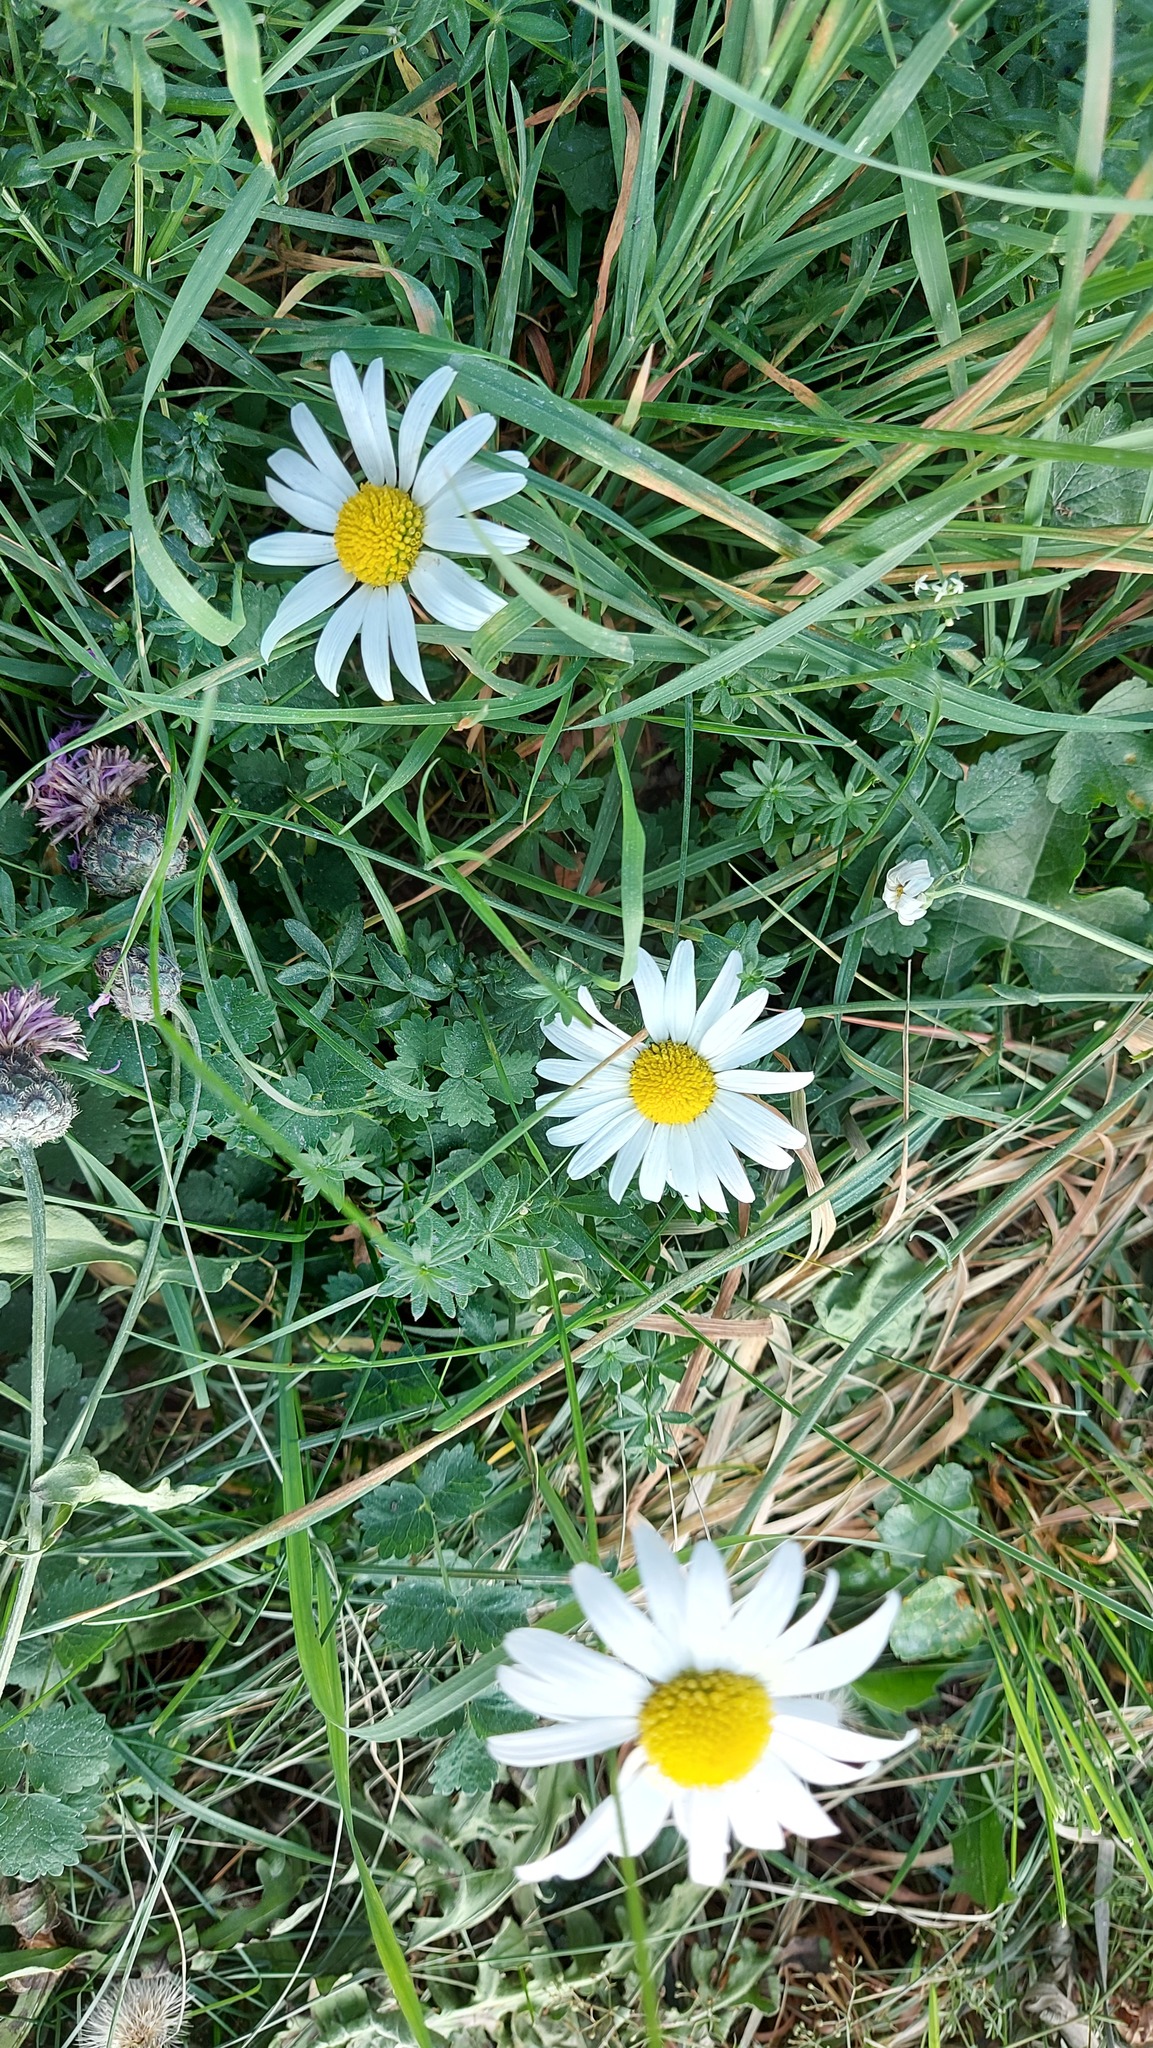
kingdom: Plantae
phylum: Tracheophyta
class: Magnoliopsida
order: Asterales
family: Asteraceae
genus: Leucanthemum
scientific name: Leucanthemum vulgare
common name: Oxeye daisy
